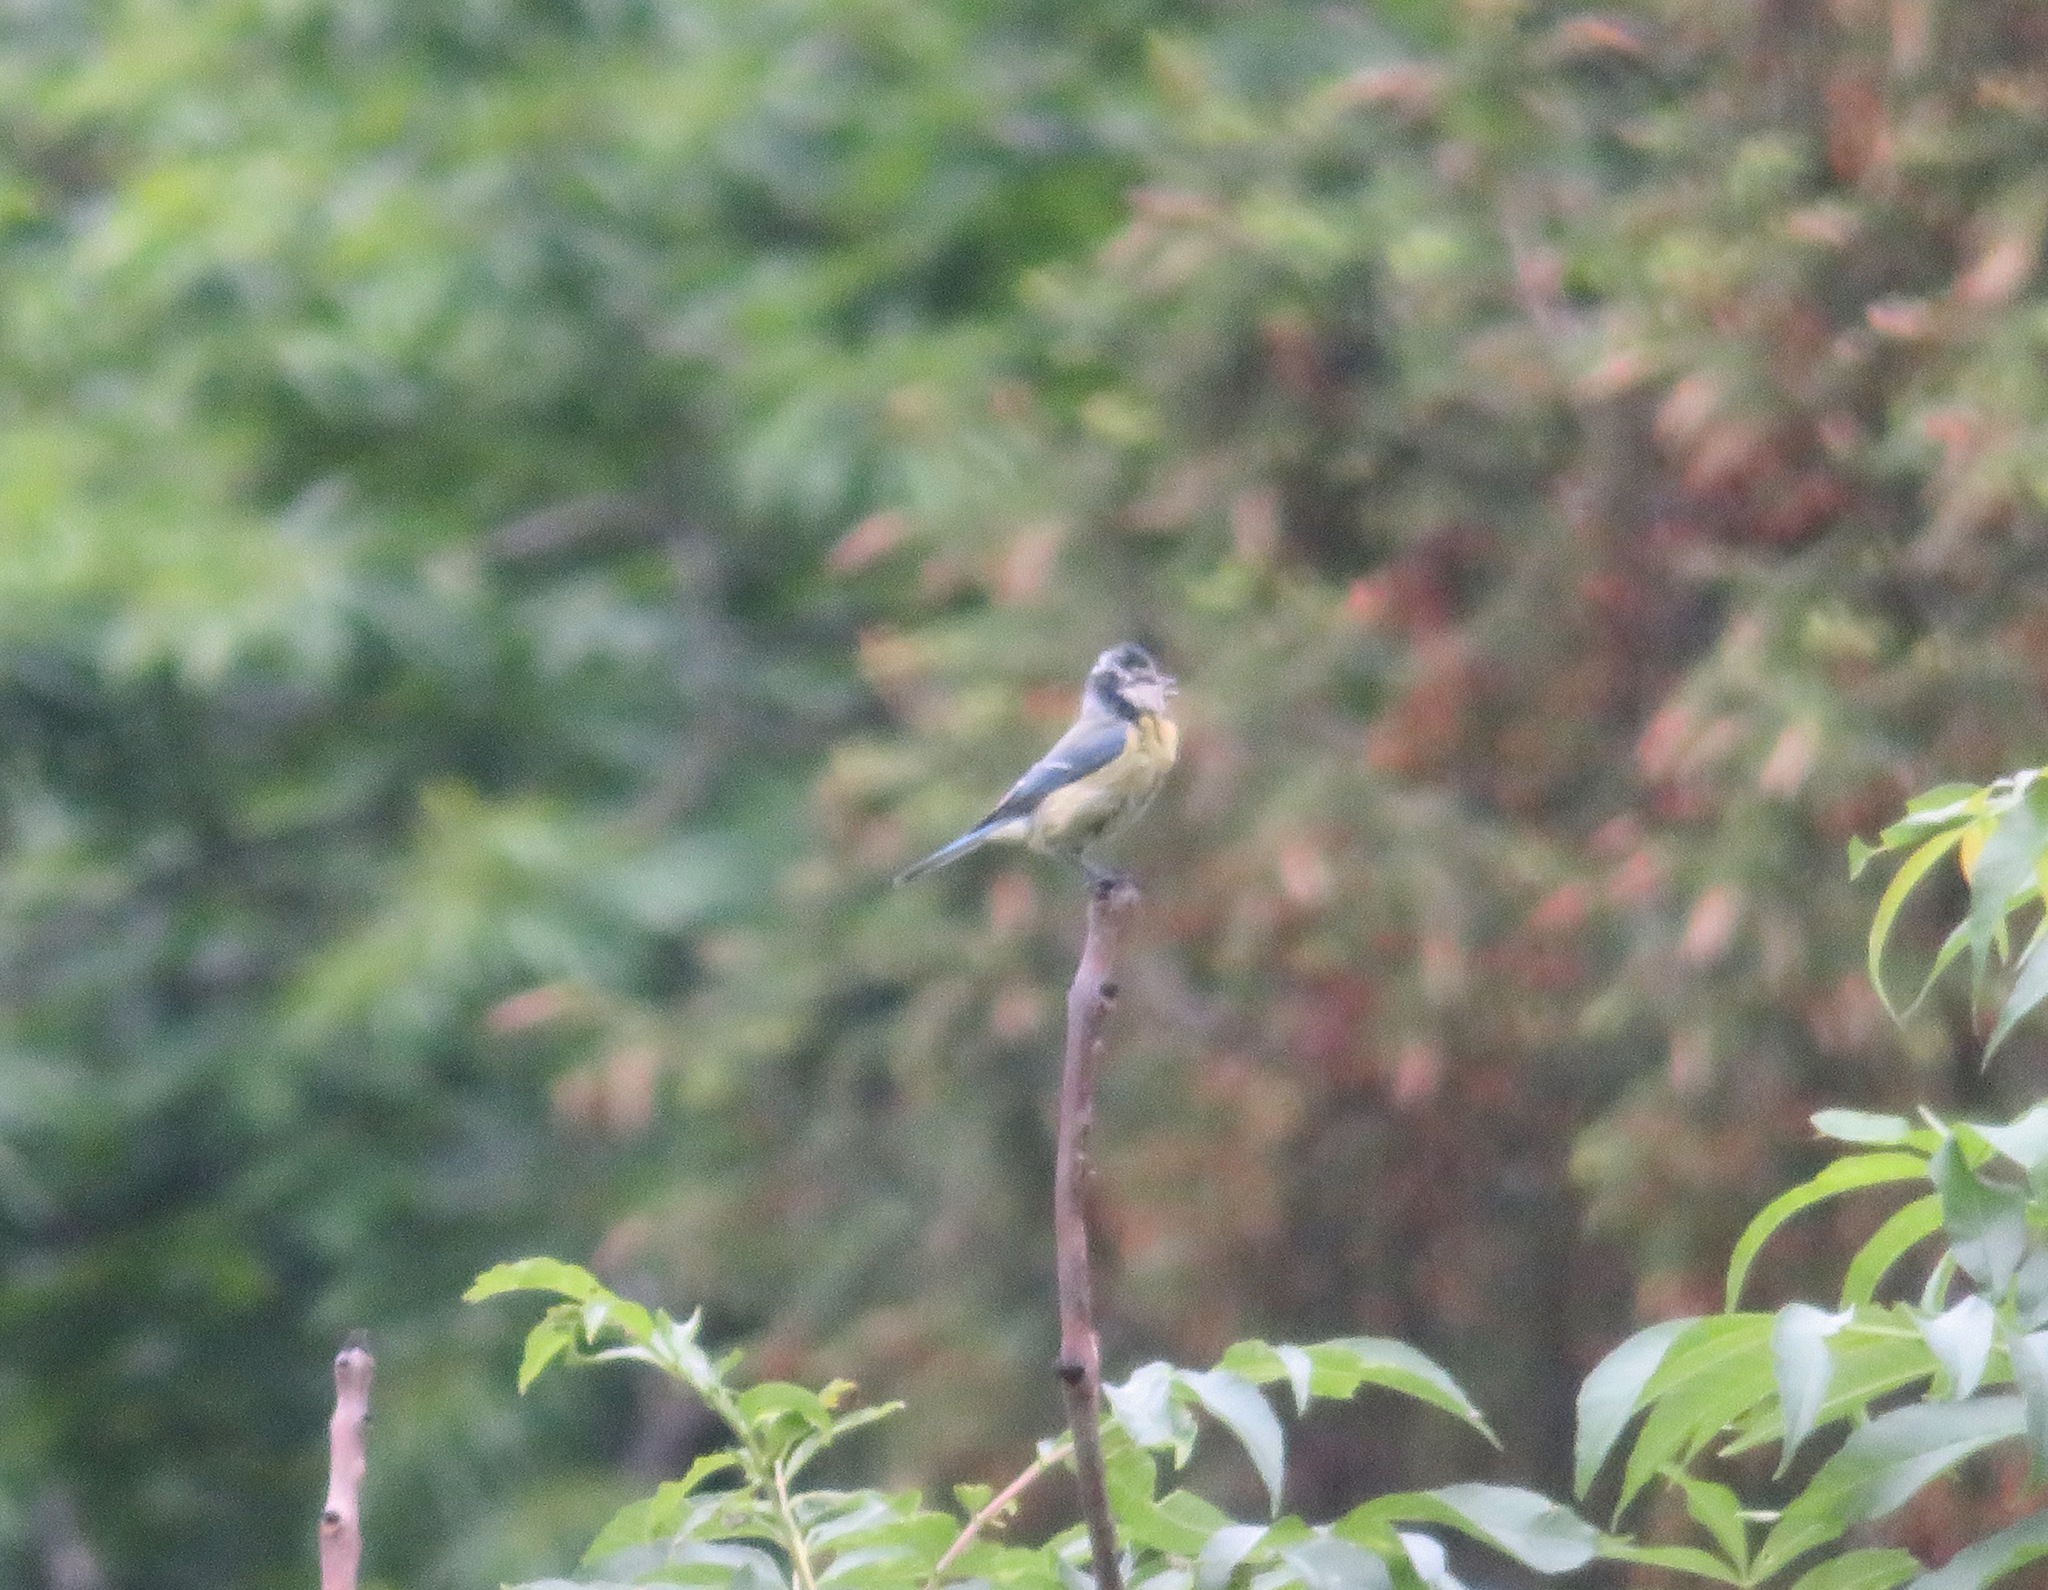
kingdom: Animalia
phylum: Chordata
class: Aves
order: Passeriformes
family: Paridae
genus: Cyanistes
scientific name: Cyanistes caeruleus
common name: Eurasian blue tit
